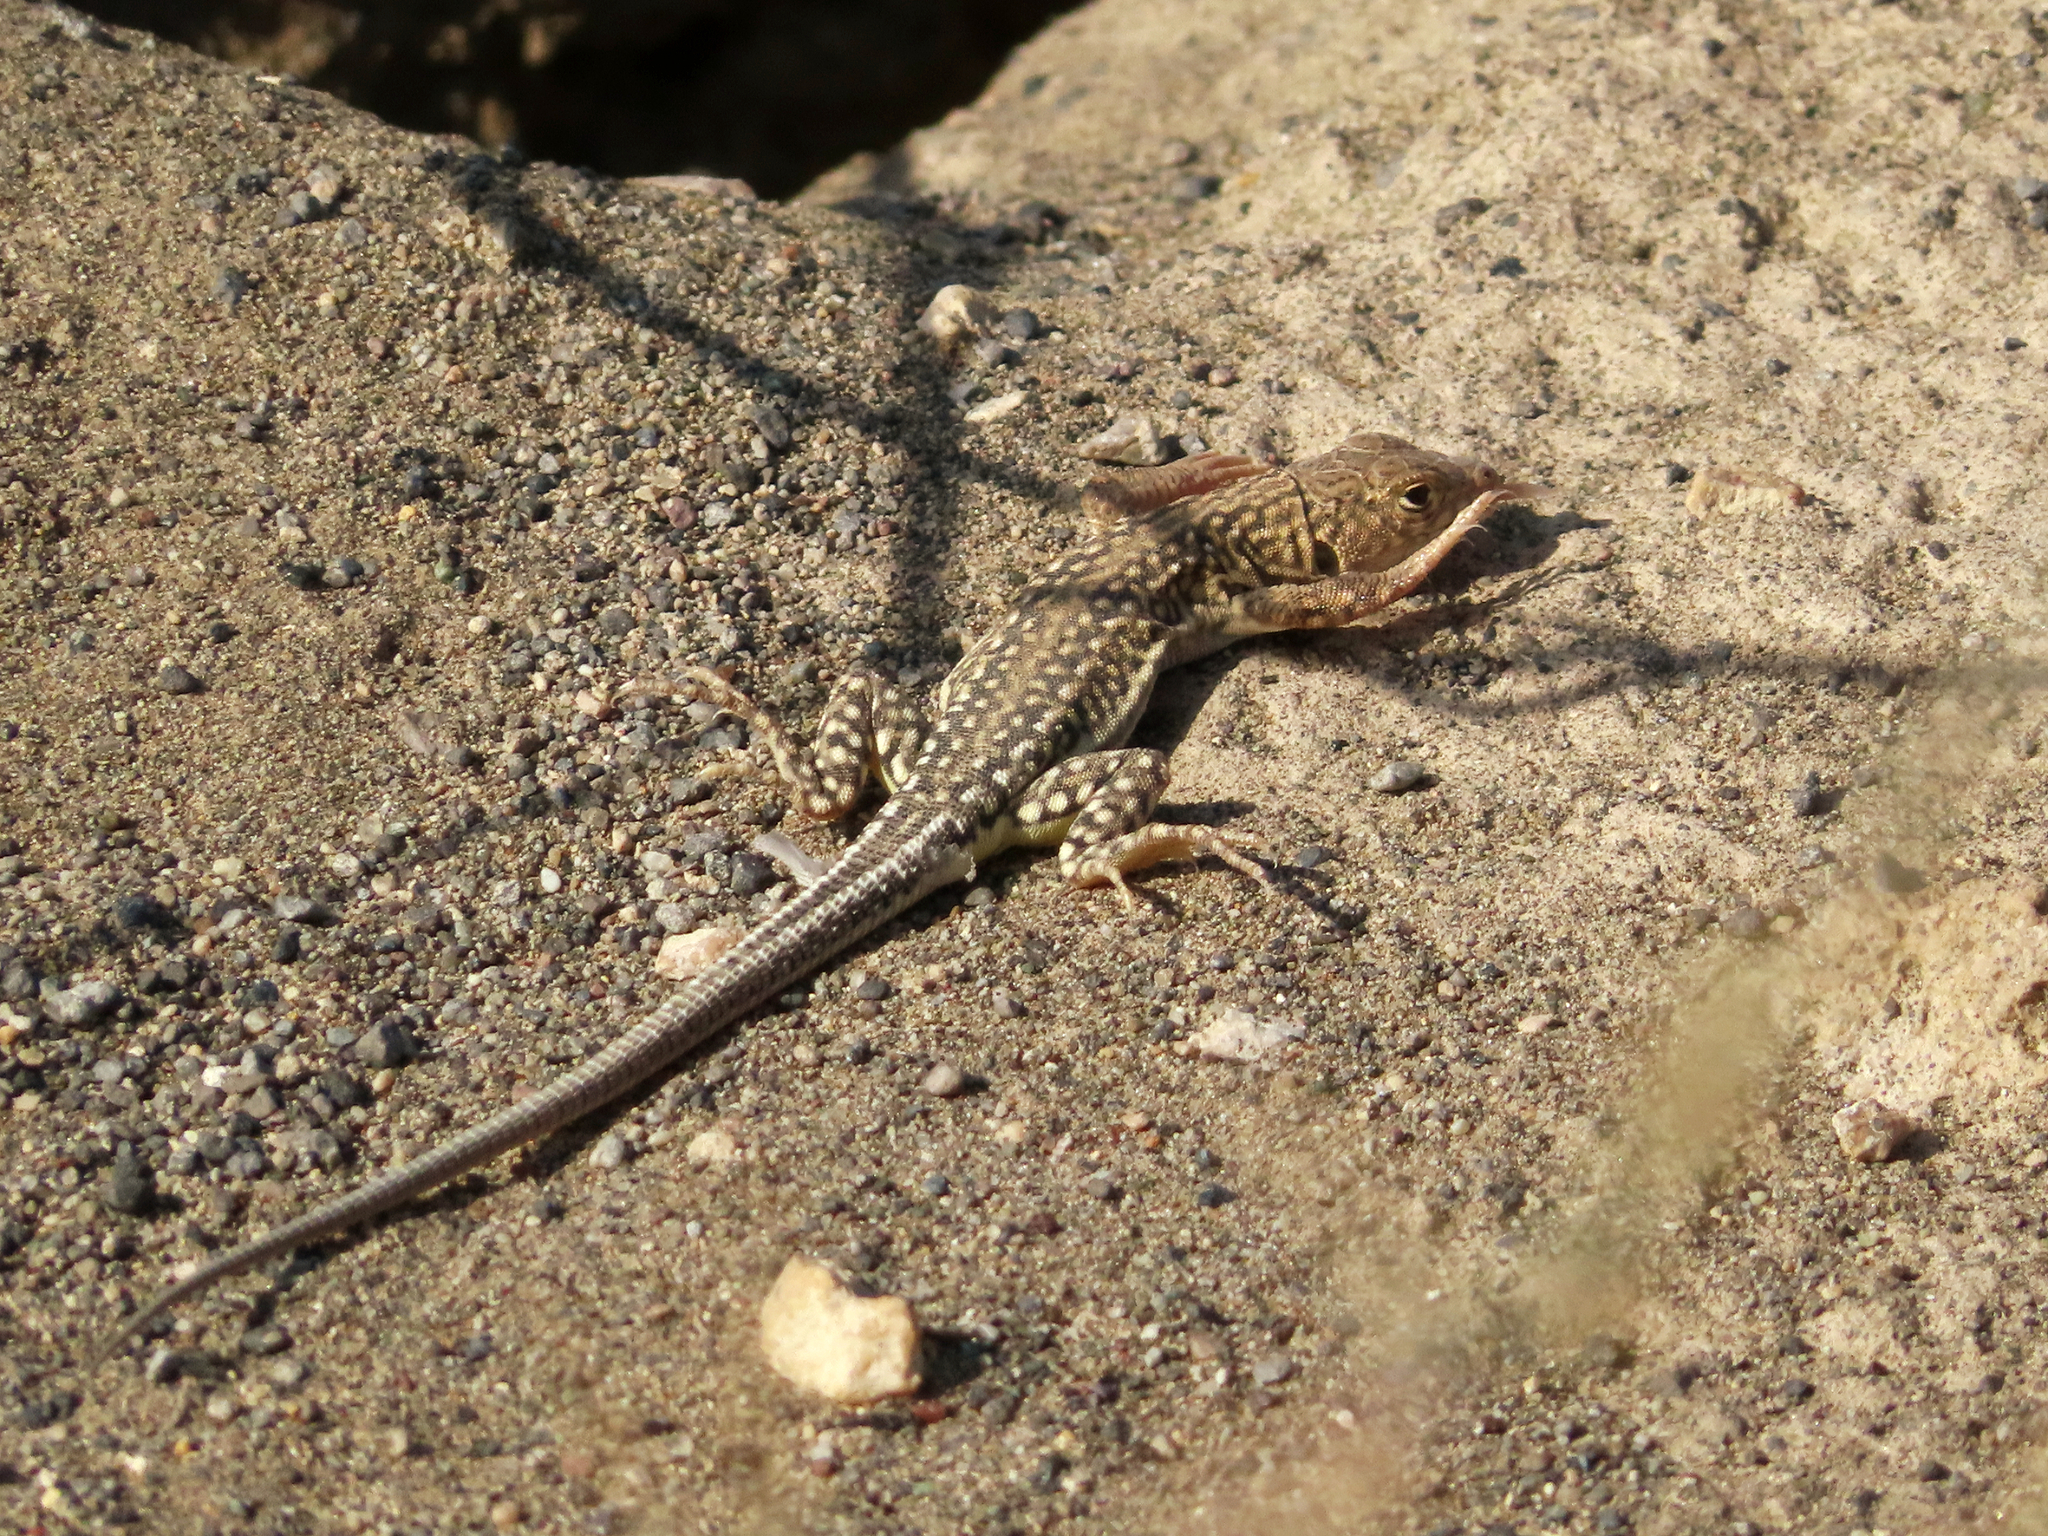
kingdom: Animalia
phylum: Chordata
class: Squamata
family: Lacertidae
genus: Eremias
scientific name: Eremias strauchi
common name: Strauch's racerunner
